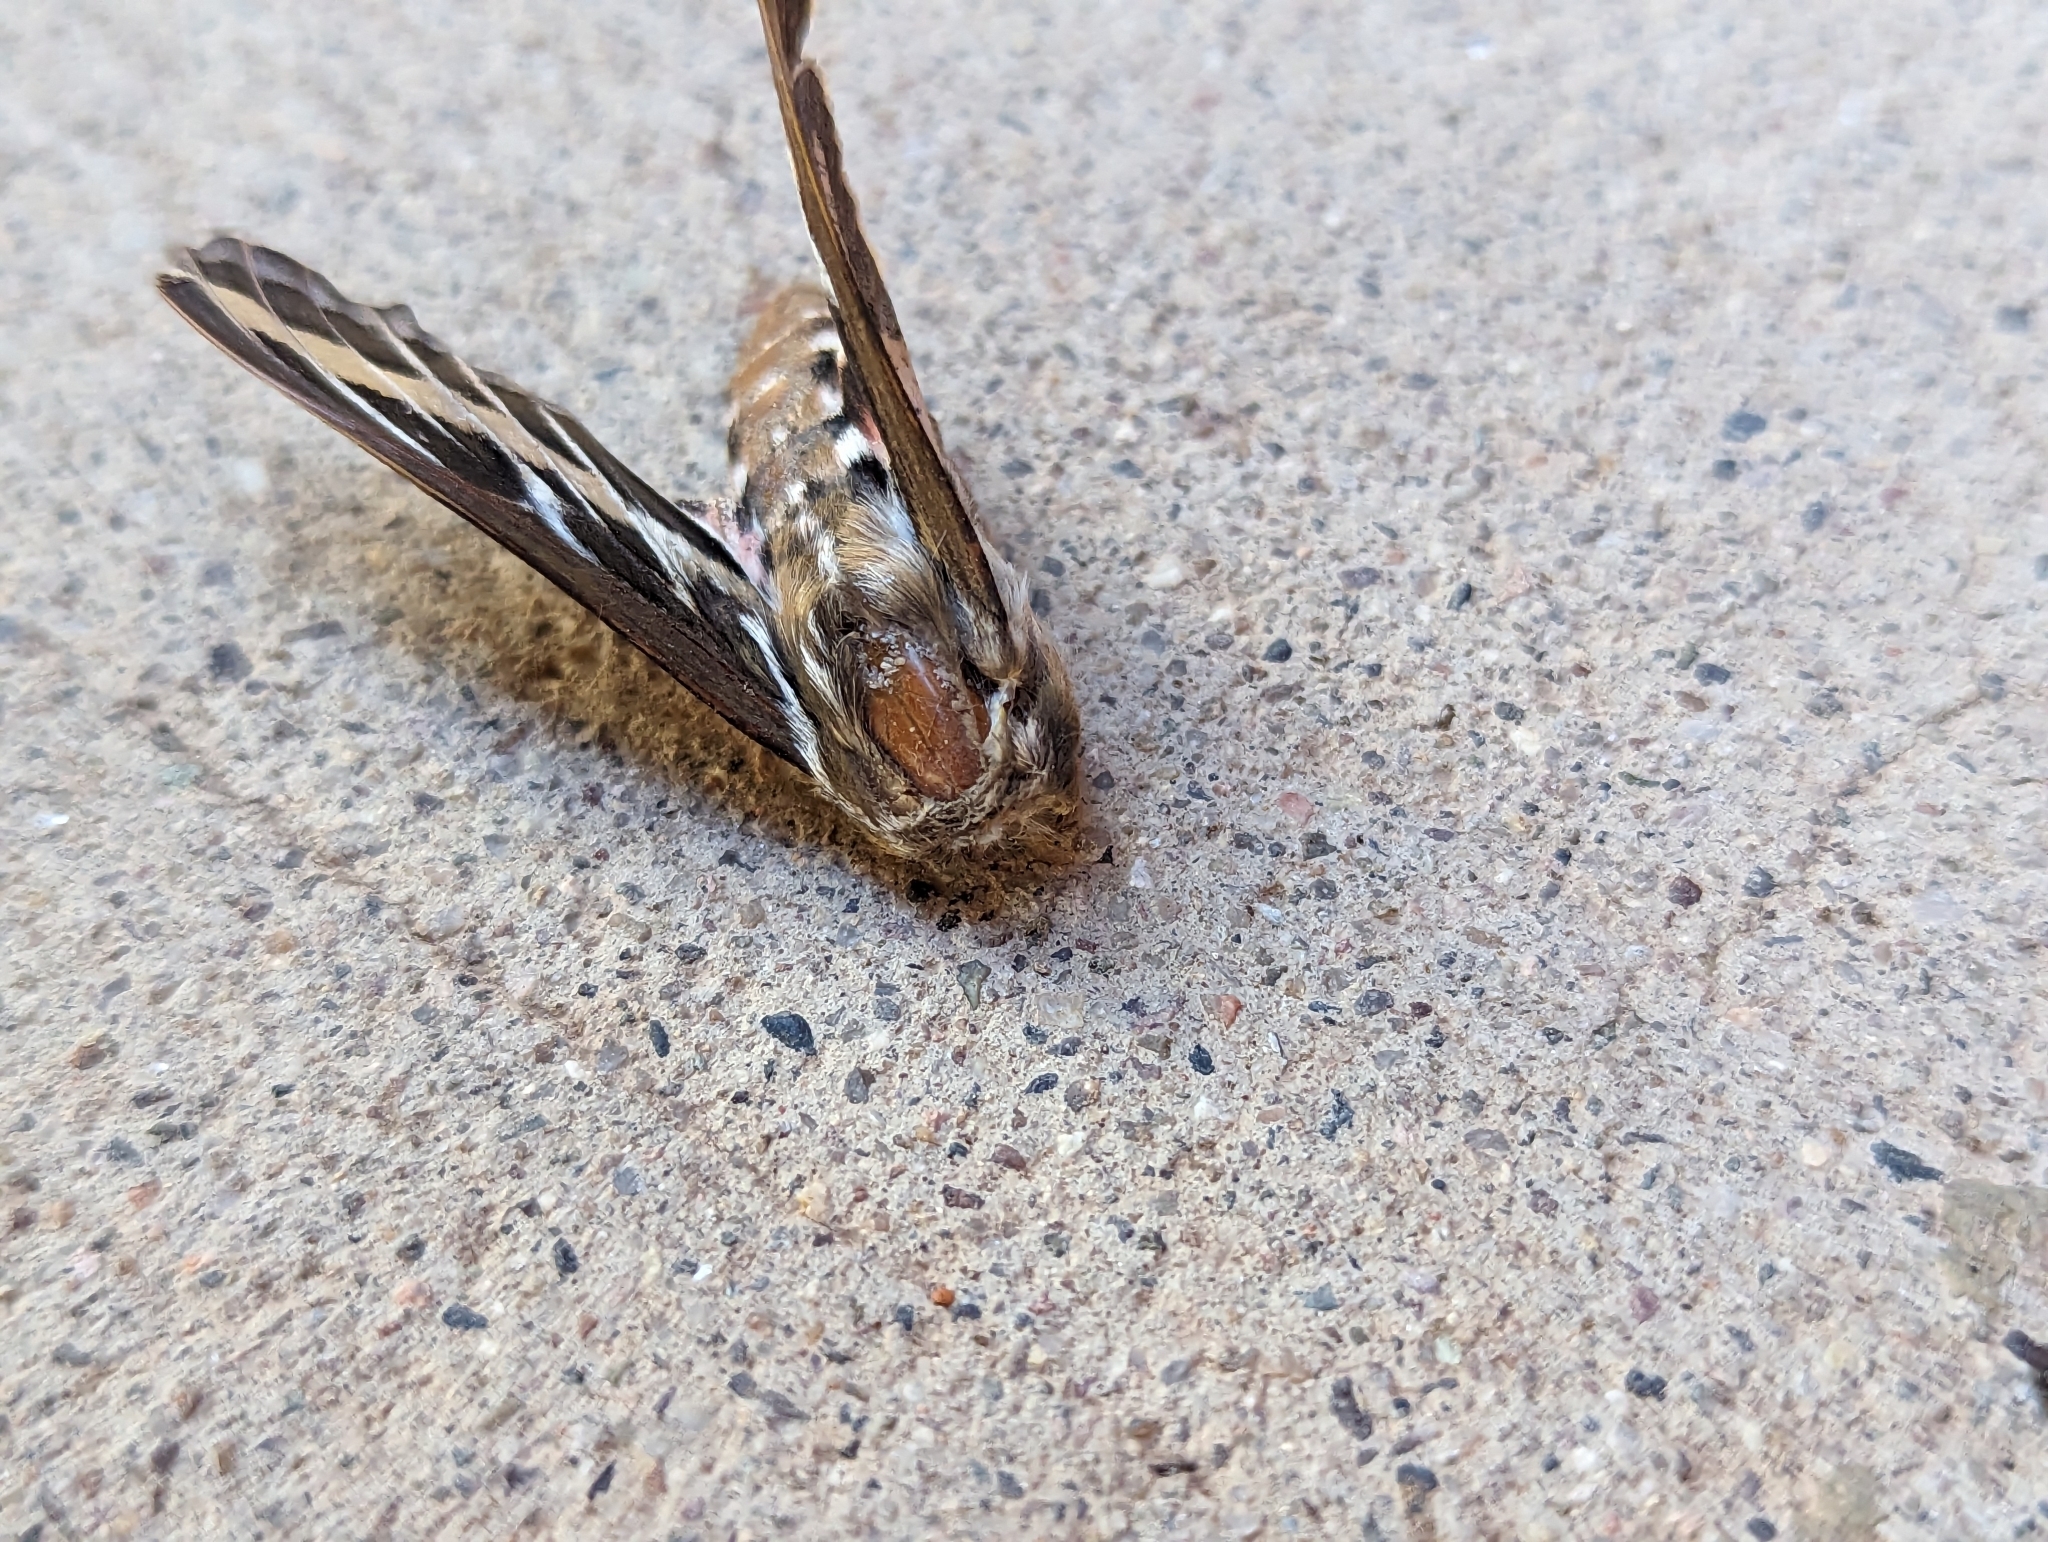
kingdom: Animalia
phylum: Arthropoda
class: Insecta
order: Lepidoptera
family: Sphingidae
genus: Hyles
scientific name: Hyles lineata
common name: White-lined sphinx
